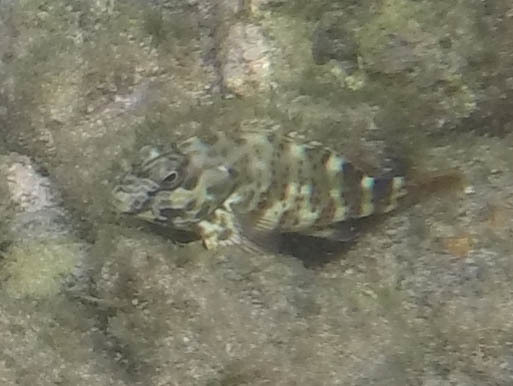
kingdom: Animalia
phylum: Chordata
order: Perciformes
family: Cirrhitidae
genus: Cirrhitus
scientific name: Cirrhitus pinnulatus
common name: Stocky hawkfish
